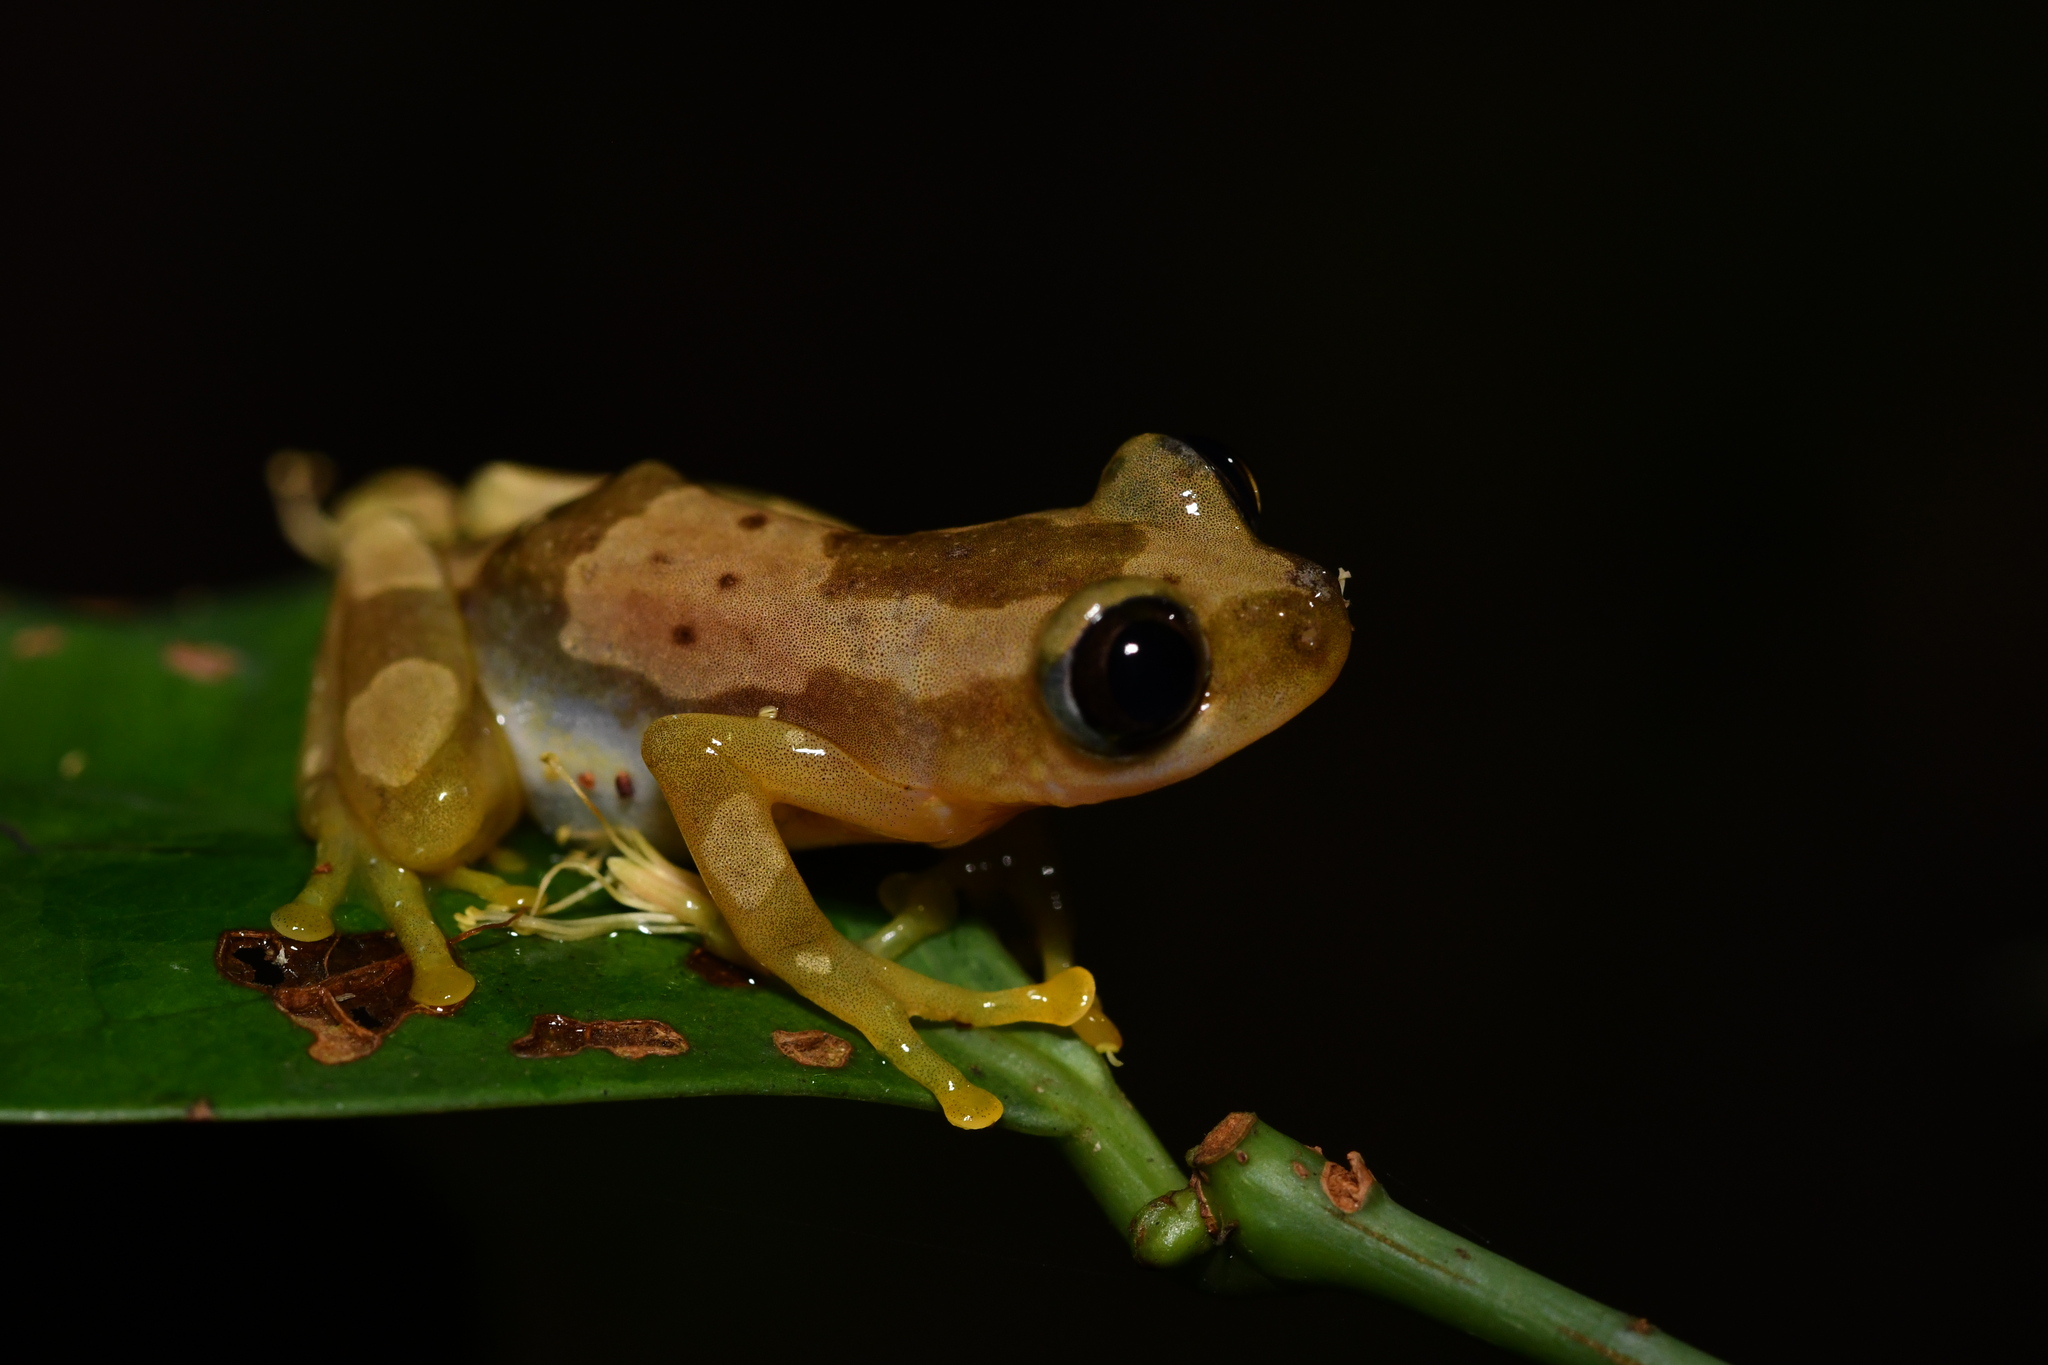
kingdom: Animalia
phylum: Chordata
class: Amphibia
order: Anura
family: Hyperoliidae
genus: Afrixalus
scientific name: Afrixalus nigeriensis
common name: Nigeria banana frog
